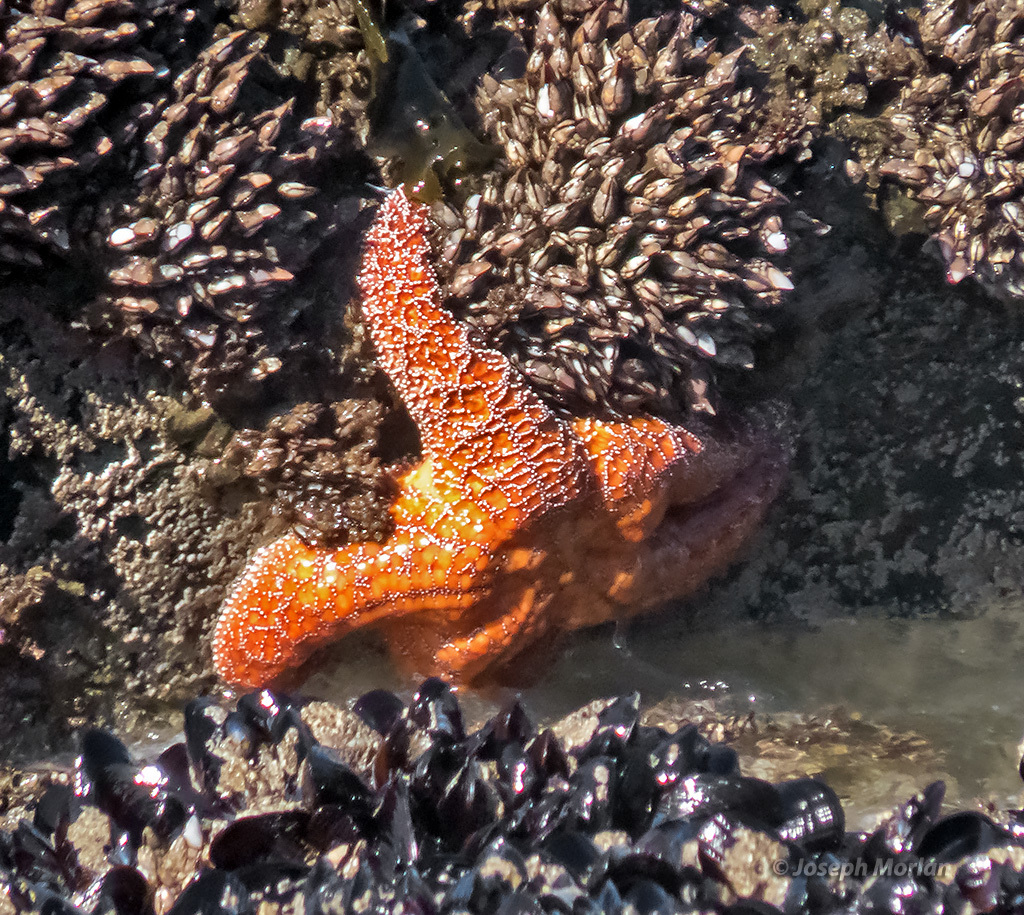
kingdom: Animalia
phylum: Echinodermata
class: Asteroidea
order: Forcipulatida
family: Asteriidae
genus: Pisaster
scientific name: Pisaster ochraceus
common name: Ochre stars
